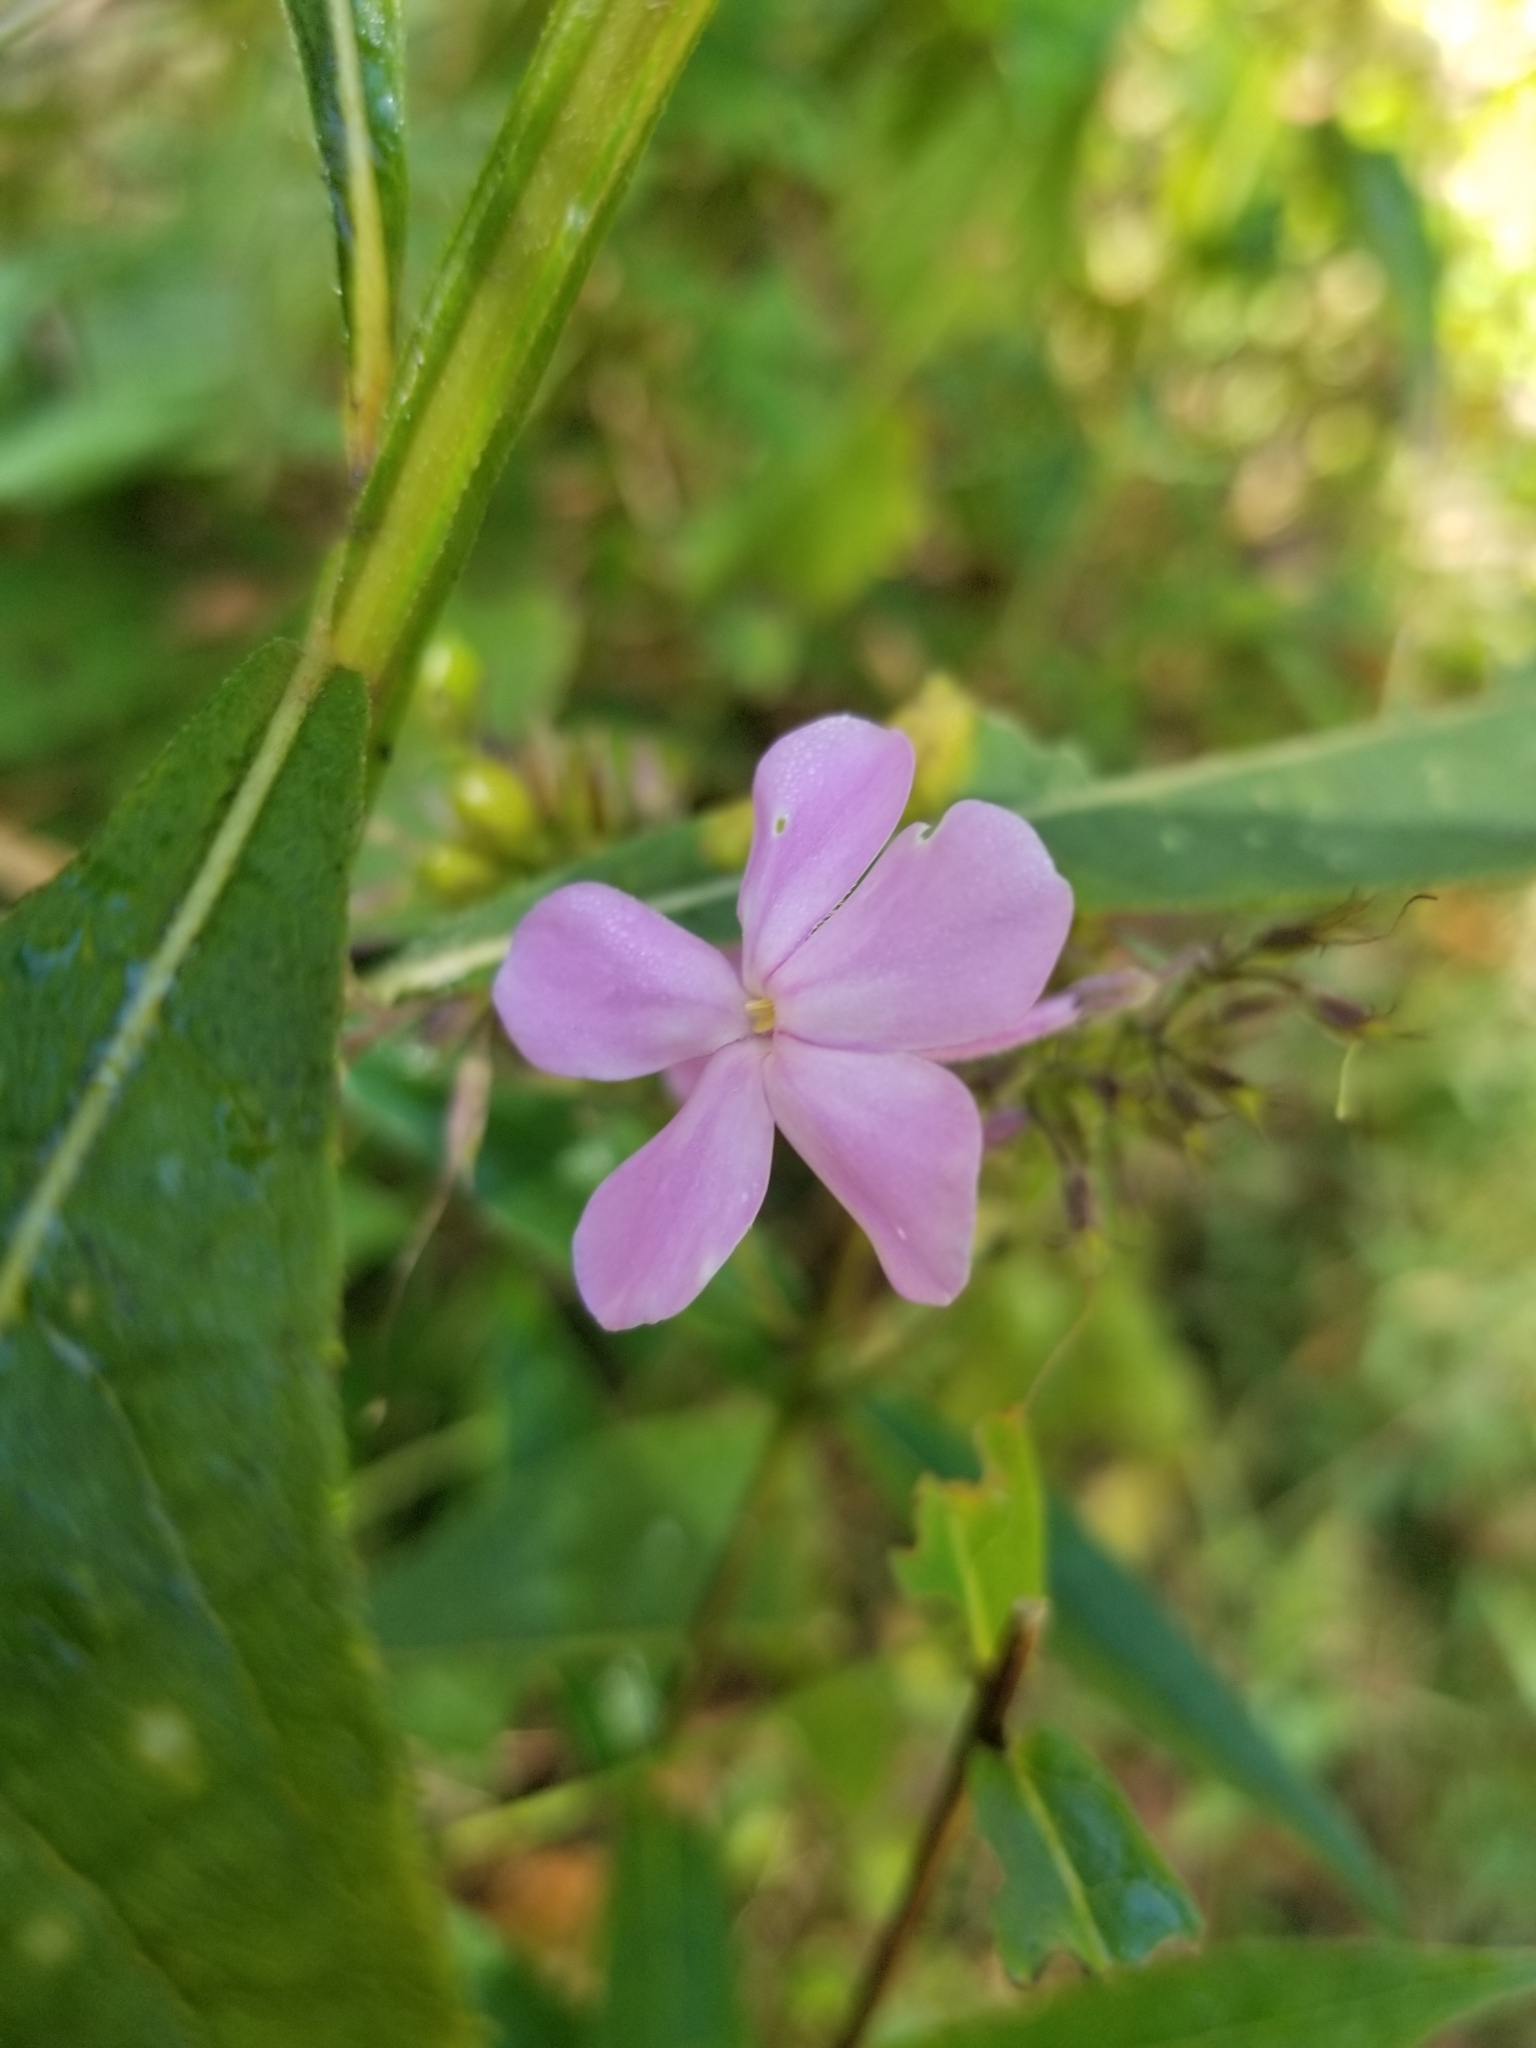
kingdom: Plantae
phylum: Tracheophyta
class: Magnoliopsida
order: Ericales
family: Polemoniaceae
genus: Phlox
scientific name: Phlox paniculata
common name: Fall phlox
